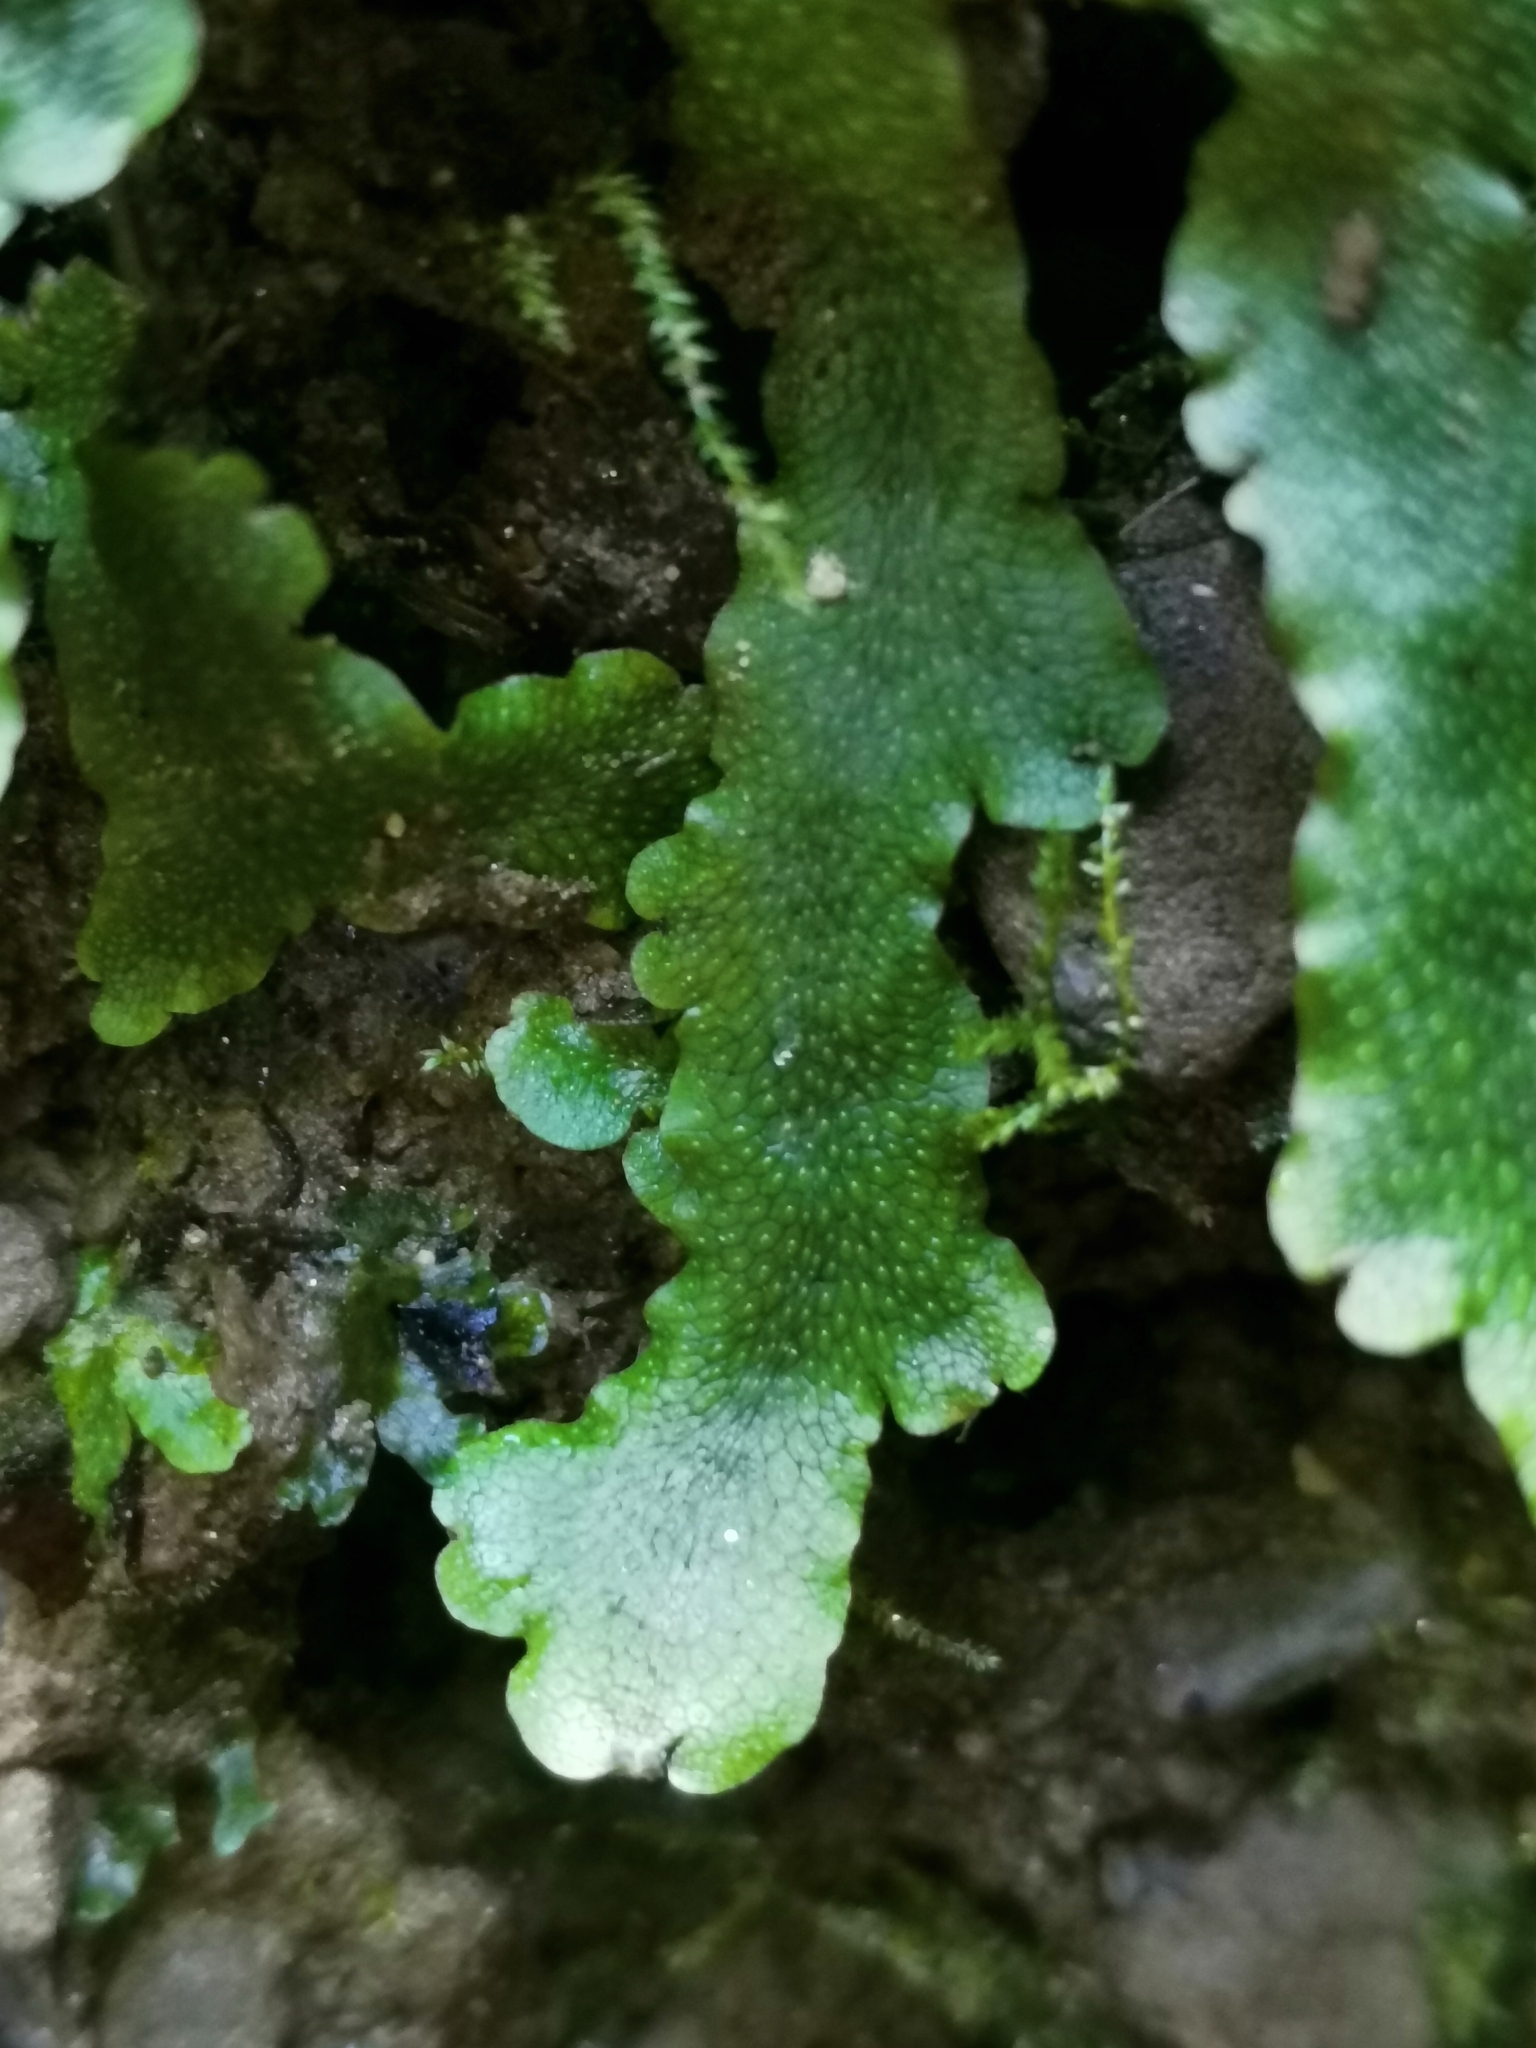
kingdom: Plantae
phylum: Marchantiophyta
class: Marchantiopsida
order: Marchantiales
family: Conocephalaceae
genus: Conocephalum
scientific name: Conocephalum conicum
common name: Great scented liverwort
